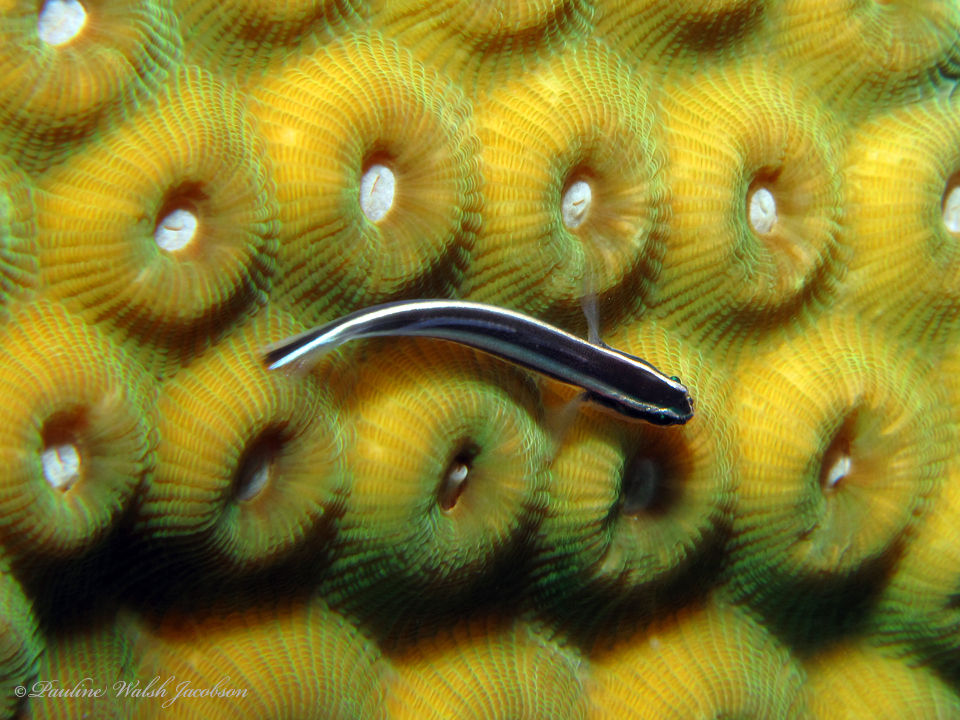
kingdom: Animalia
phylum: Chordata
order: Perciformes
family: Gobiidae
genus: Elacatinus
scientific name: Elacatinus prochilos
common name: Broadstripe goby
